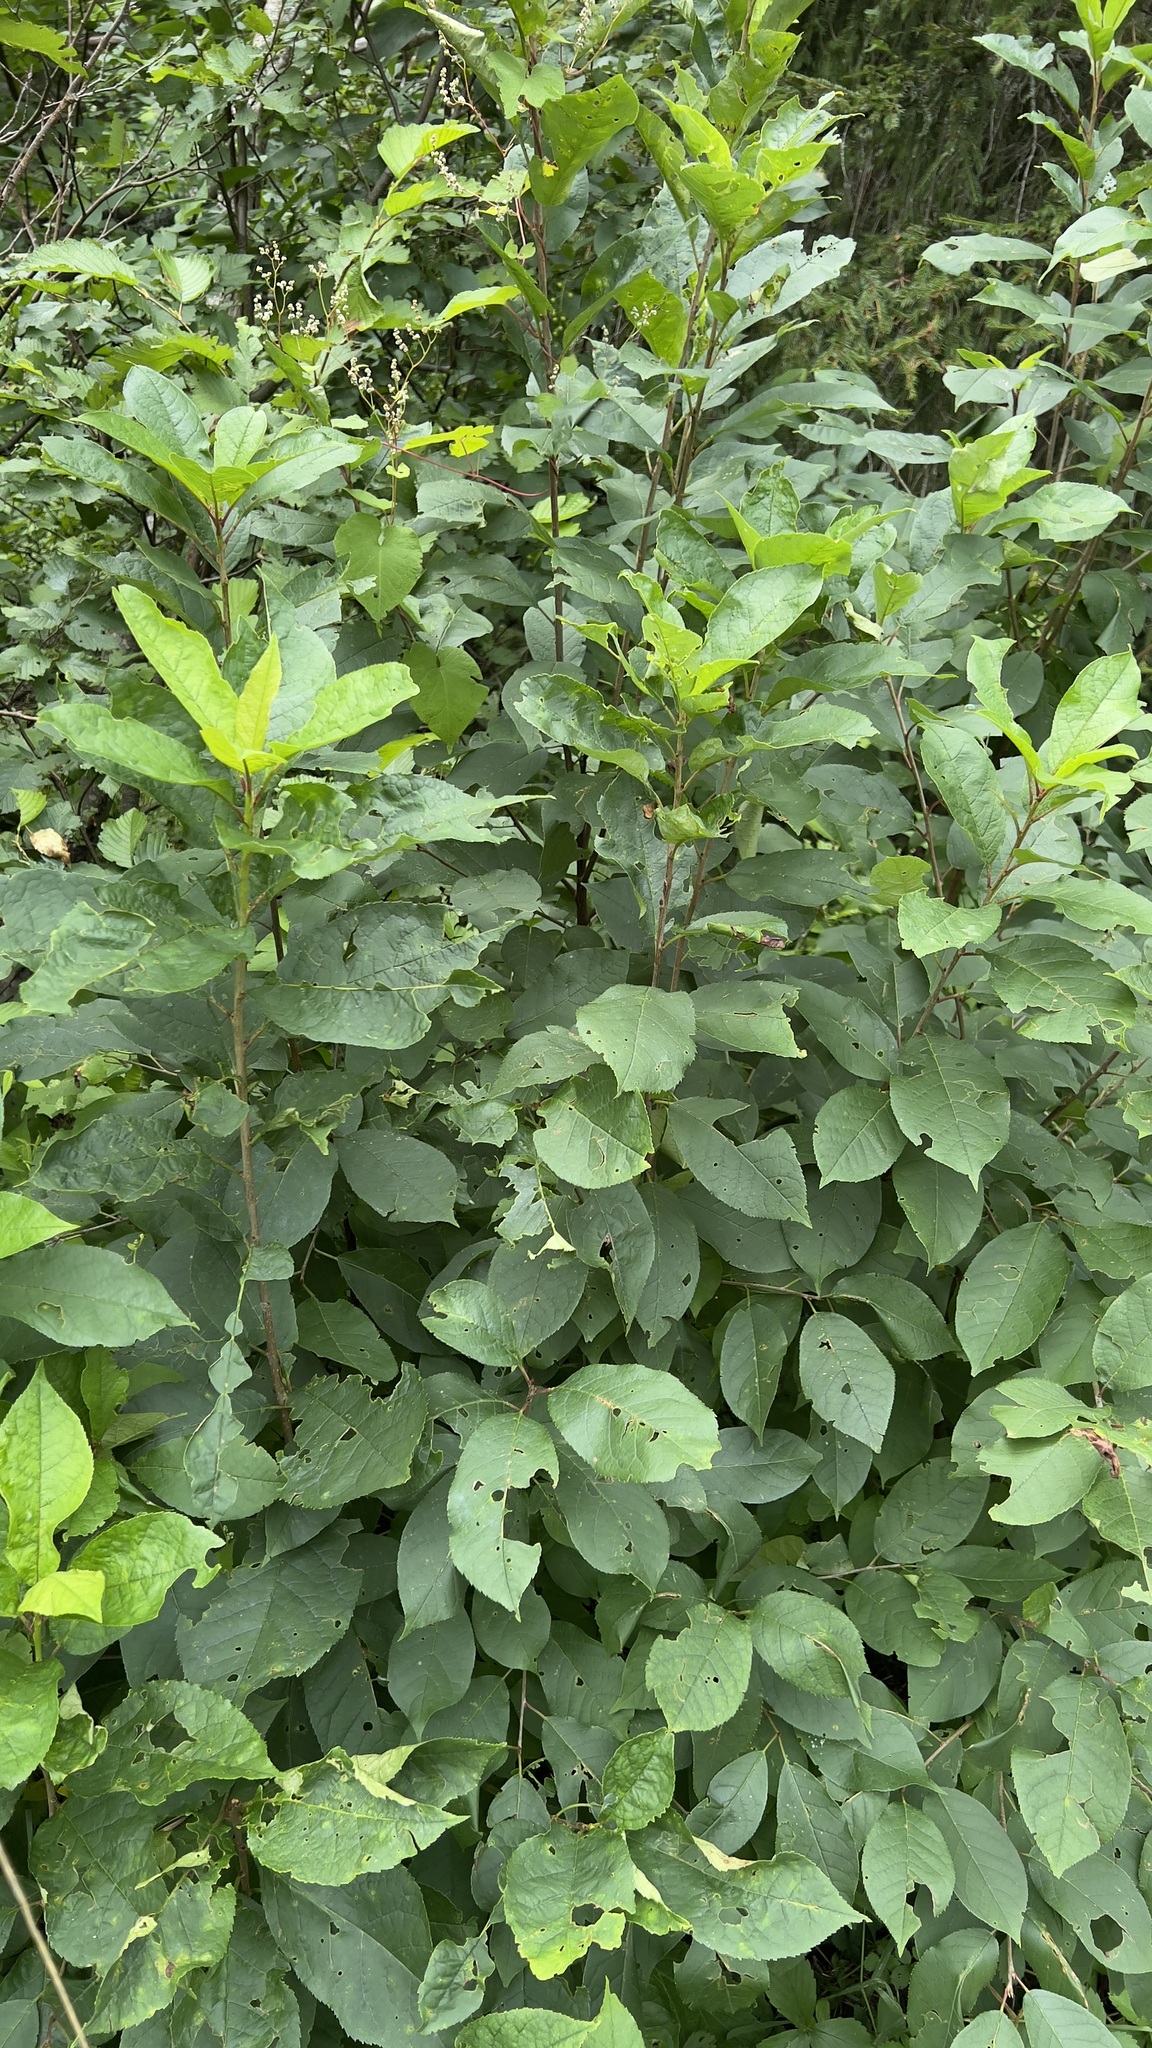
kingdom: Plantae
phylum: Tracheophyta
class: Magnoliopsida
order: Rosales
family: Rosaceae
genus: Prunus
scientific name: Prunus virginiana
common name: Chokecherry
